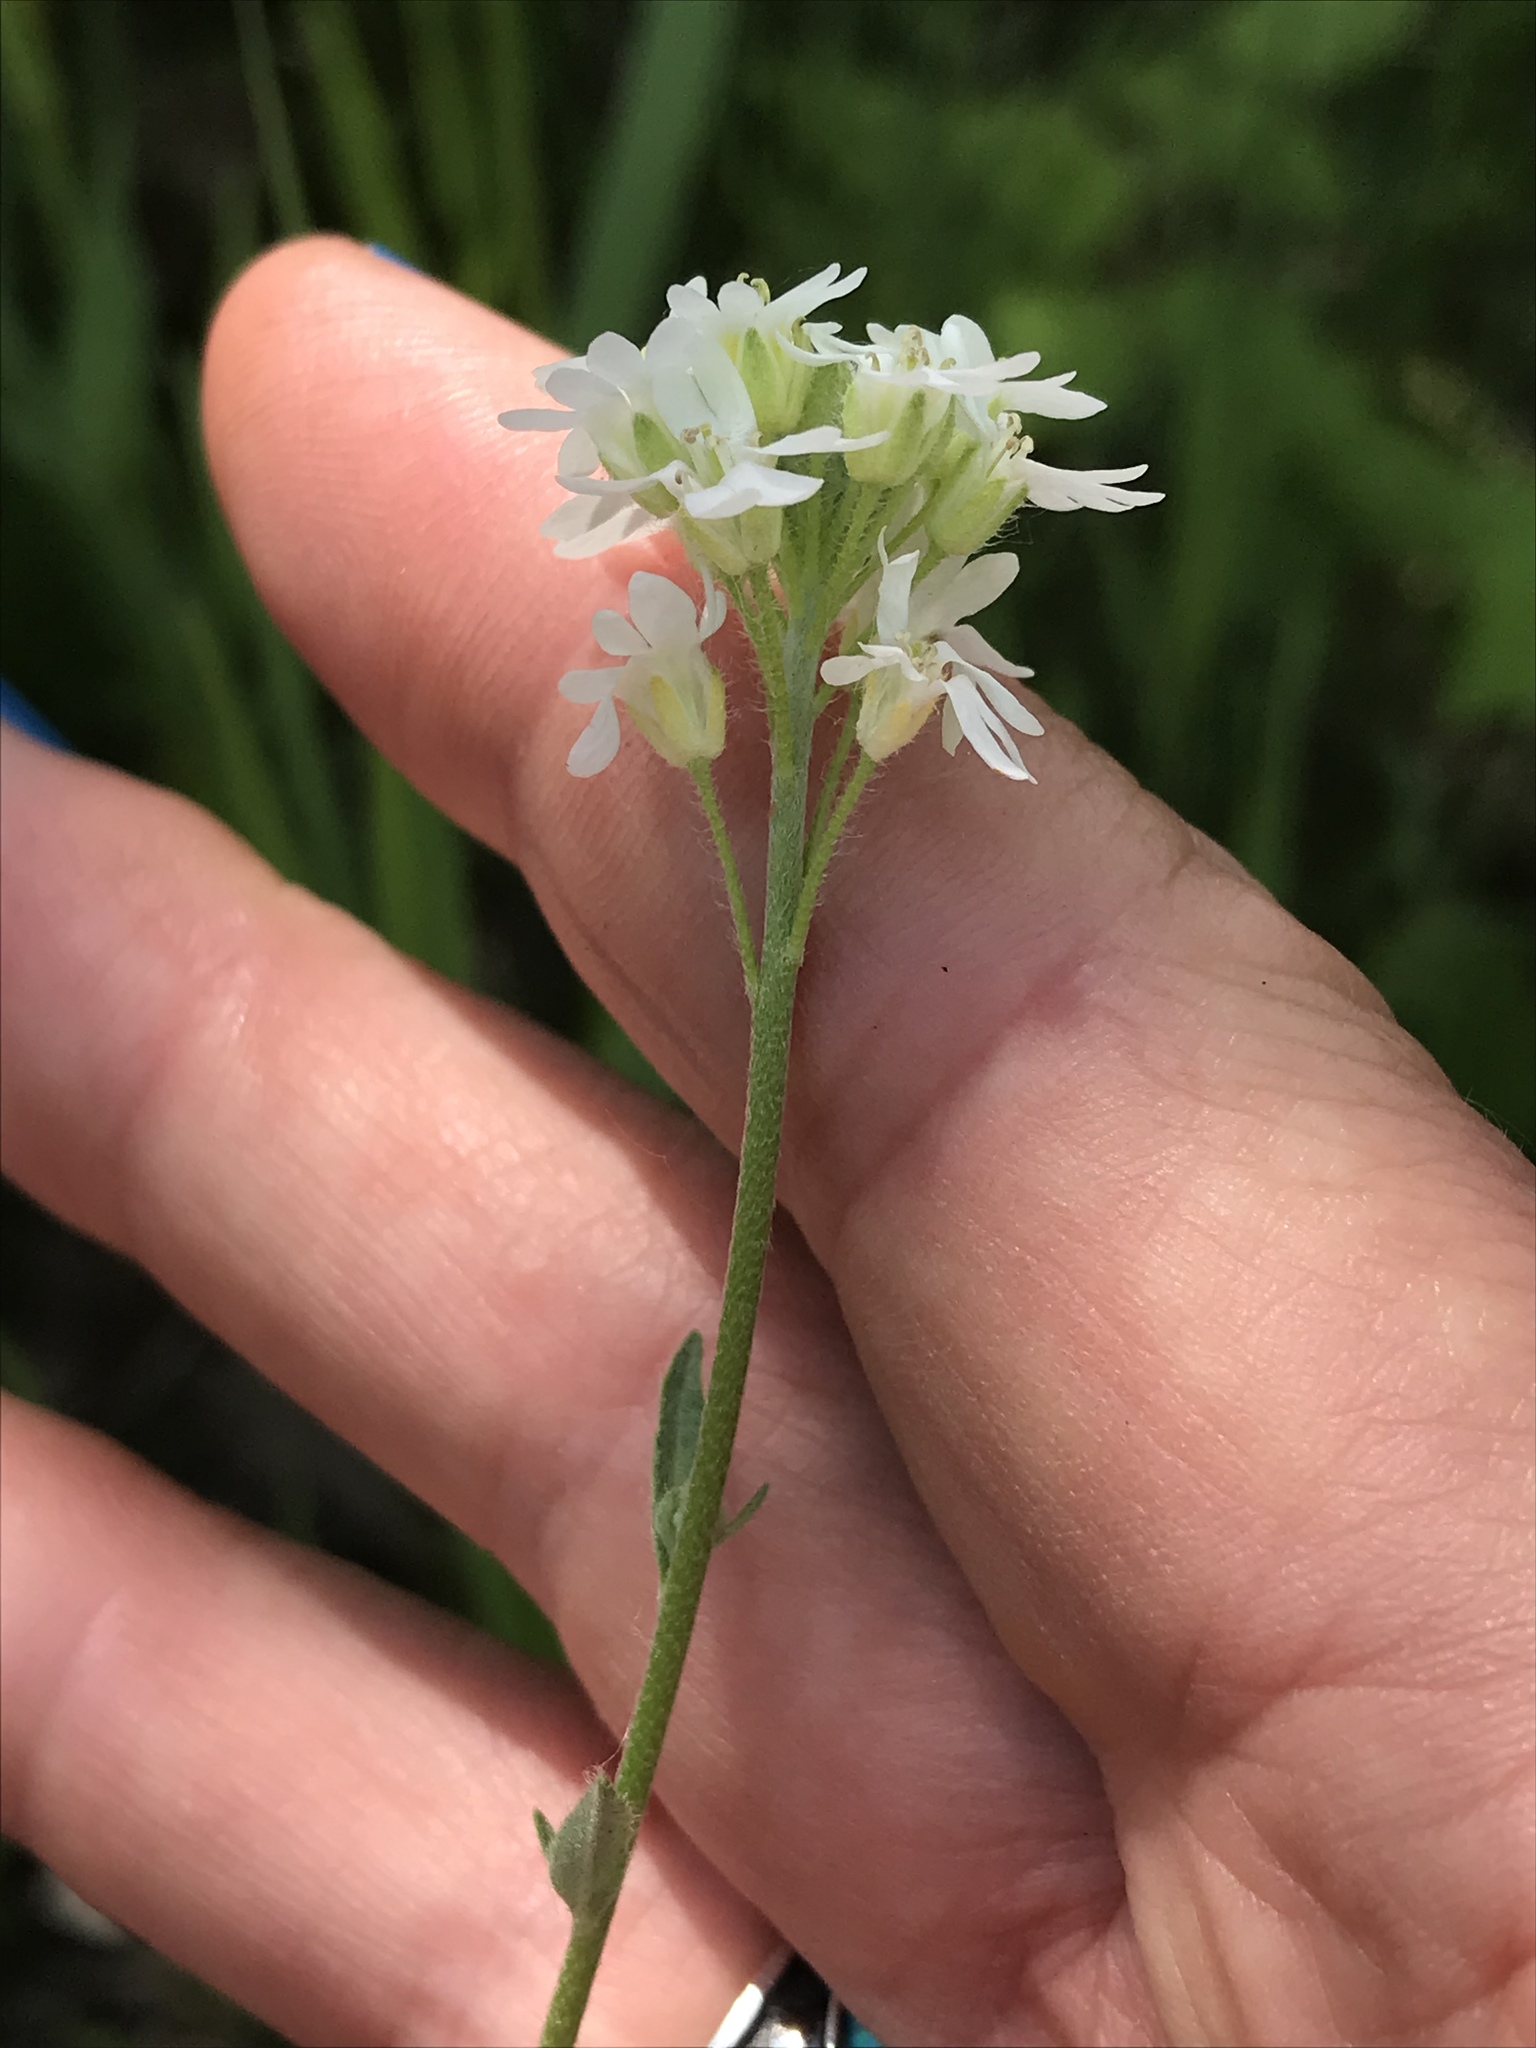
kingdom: Plantae
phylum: Tracheophyta
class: Magnoliopsida
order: Brassicales
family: Brassicaceae
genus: Berteroa
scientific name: Berteroa incana
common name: Hoary alison
